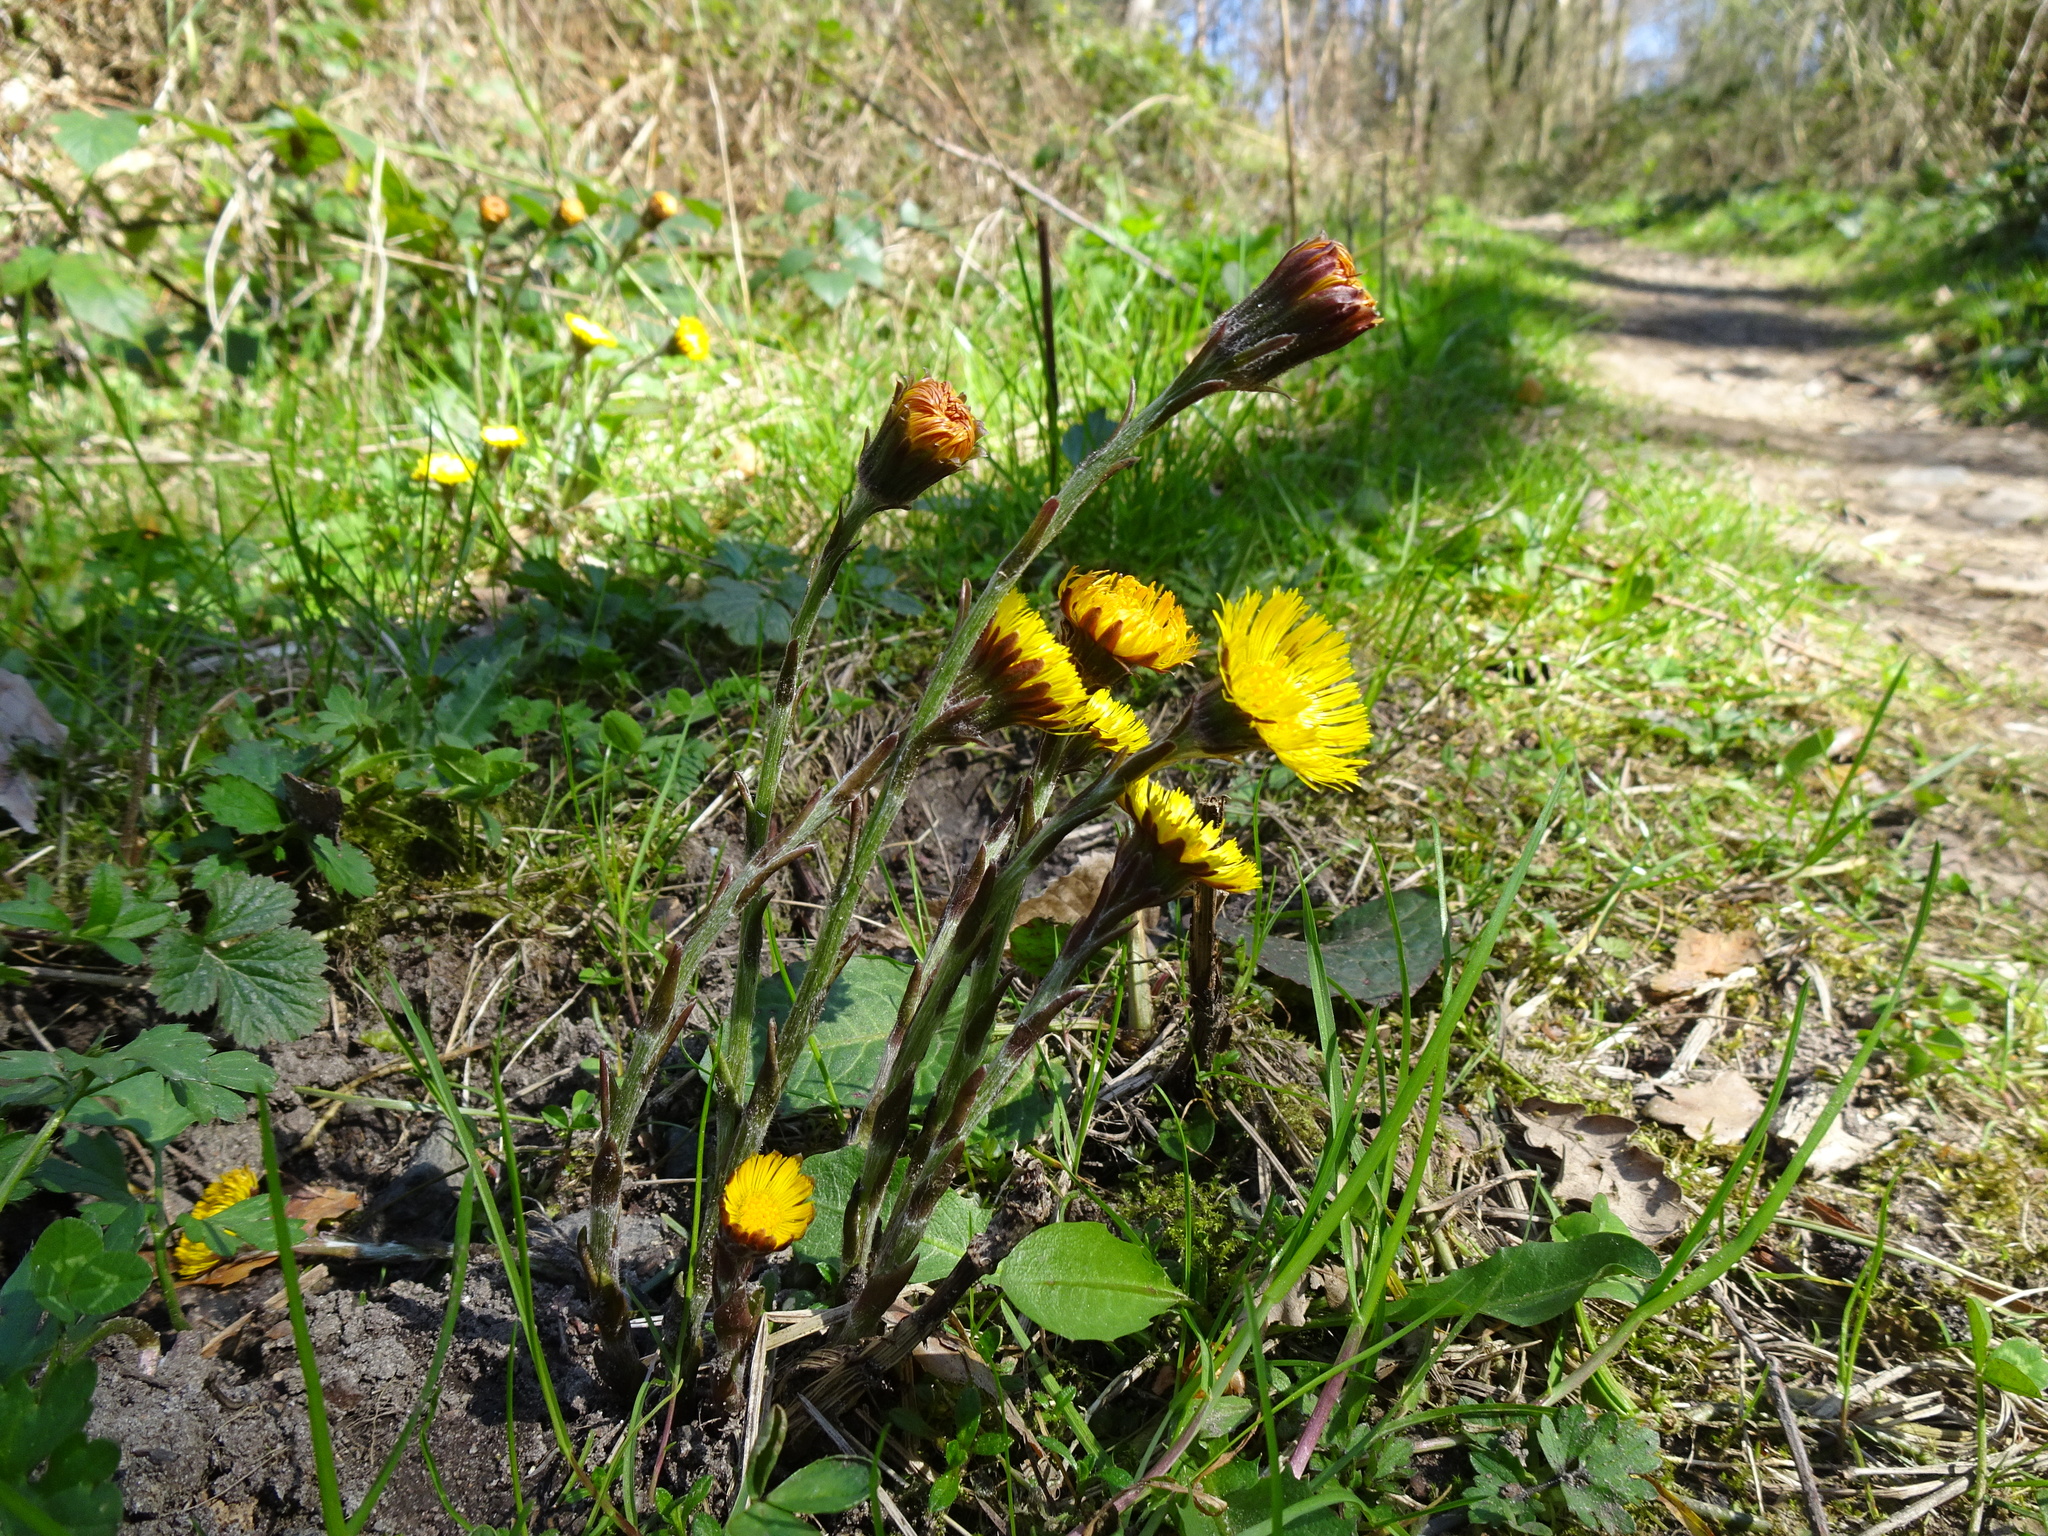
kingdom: Plantae
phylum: Tracheophyta
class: Magnoliopsida
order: Asterales
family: Asteraceae
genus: Tussilago
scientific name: Tussilago farfara
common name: Coltsfoot
